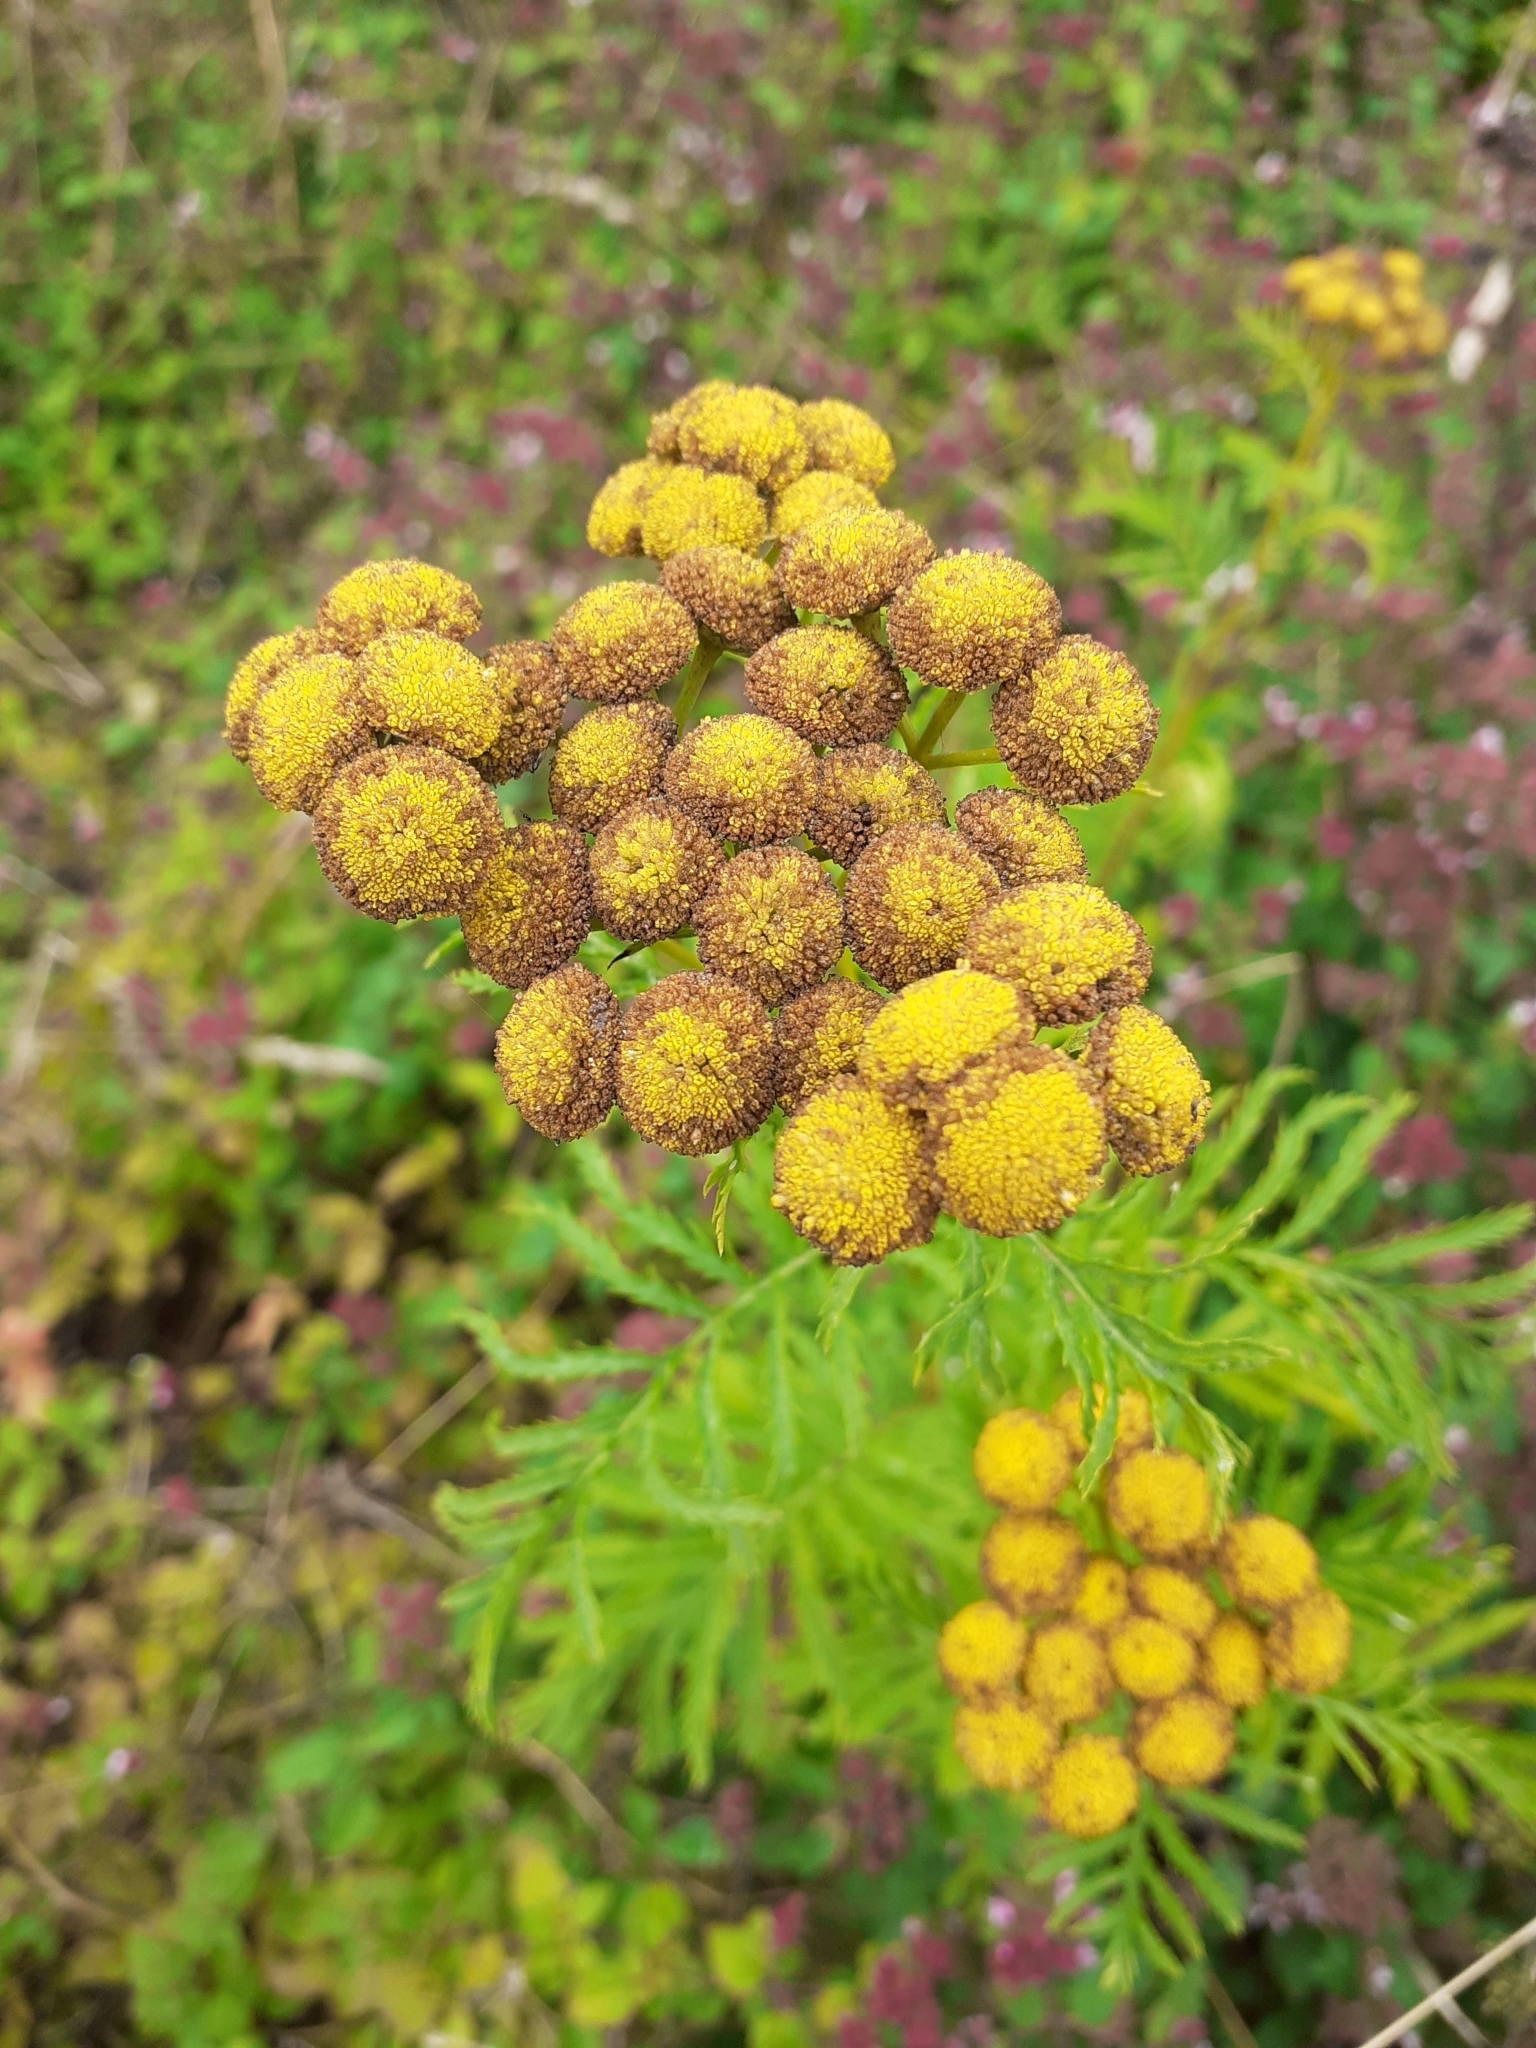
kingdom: Plantae
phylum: Tracheophyta
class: Magnoliopsida
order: Asterales
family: Asteraceae
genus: Tanacetum
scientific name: Tanacetum vulgare
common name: Common tansy
